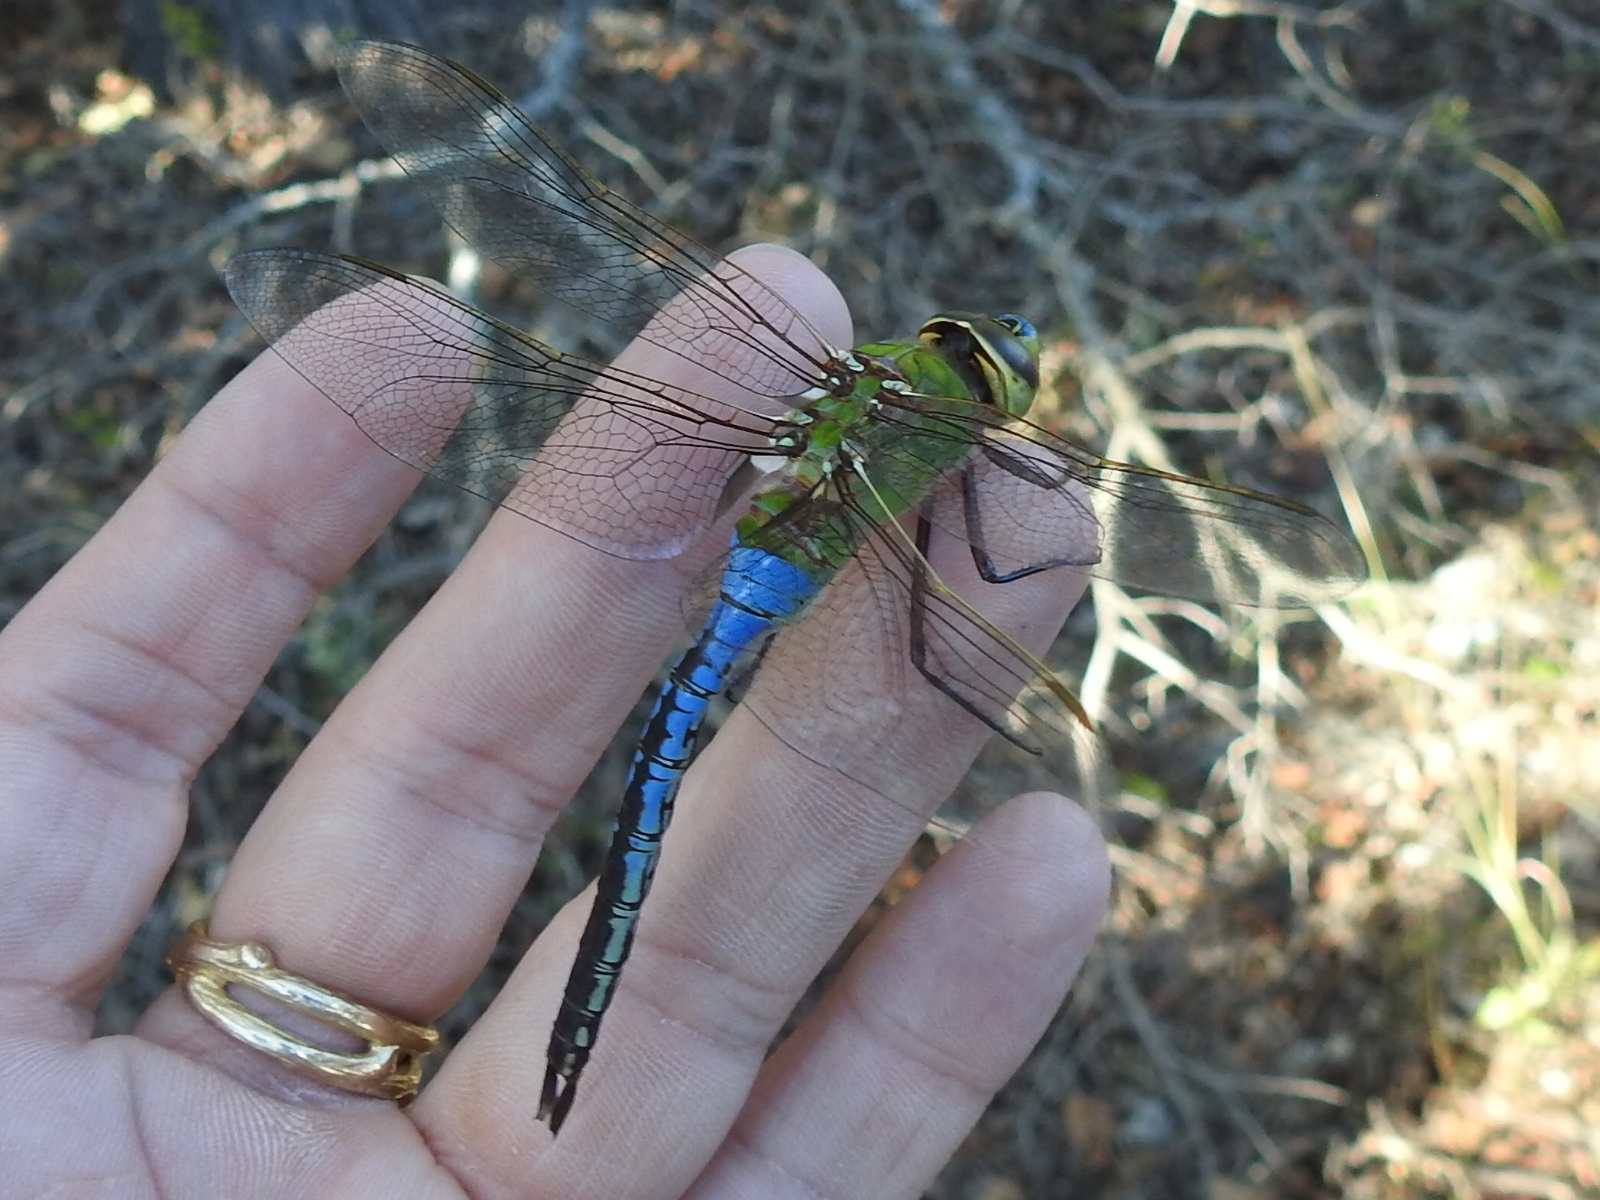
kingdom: Animalia
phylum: Arthropoda
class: Insecta
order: Odonata
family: Aeshnidae
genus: Anax
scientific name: Anax junius
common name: Common green darner
